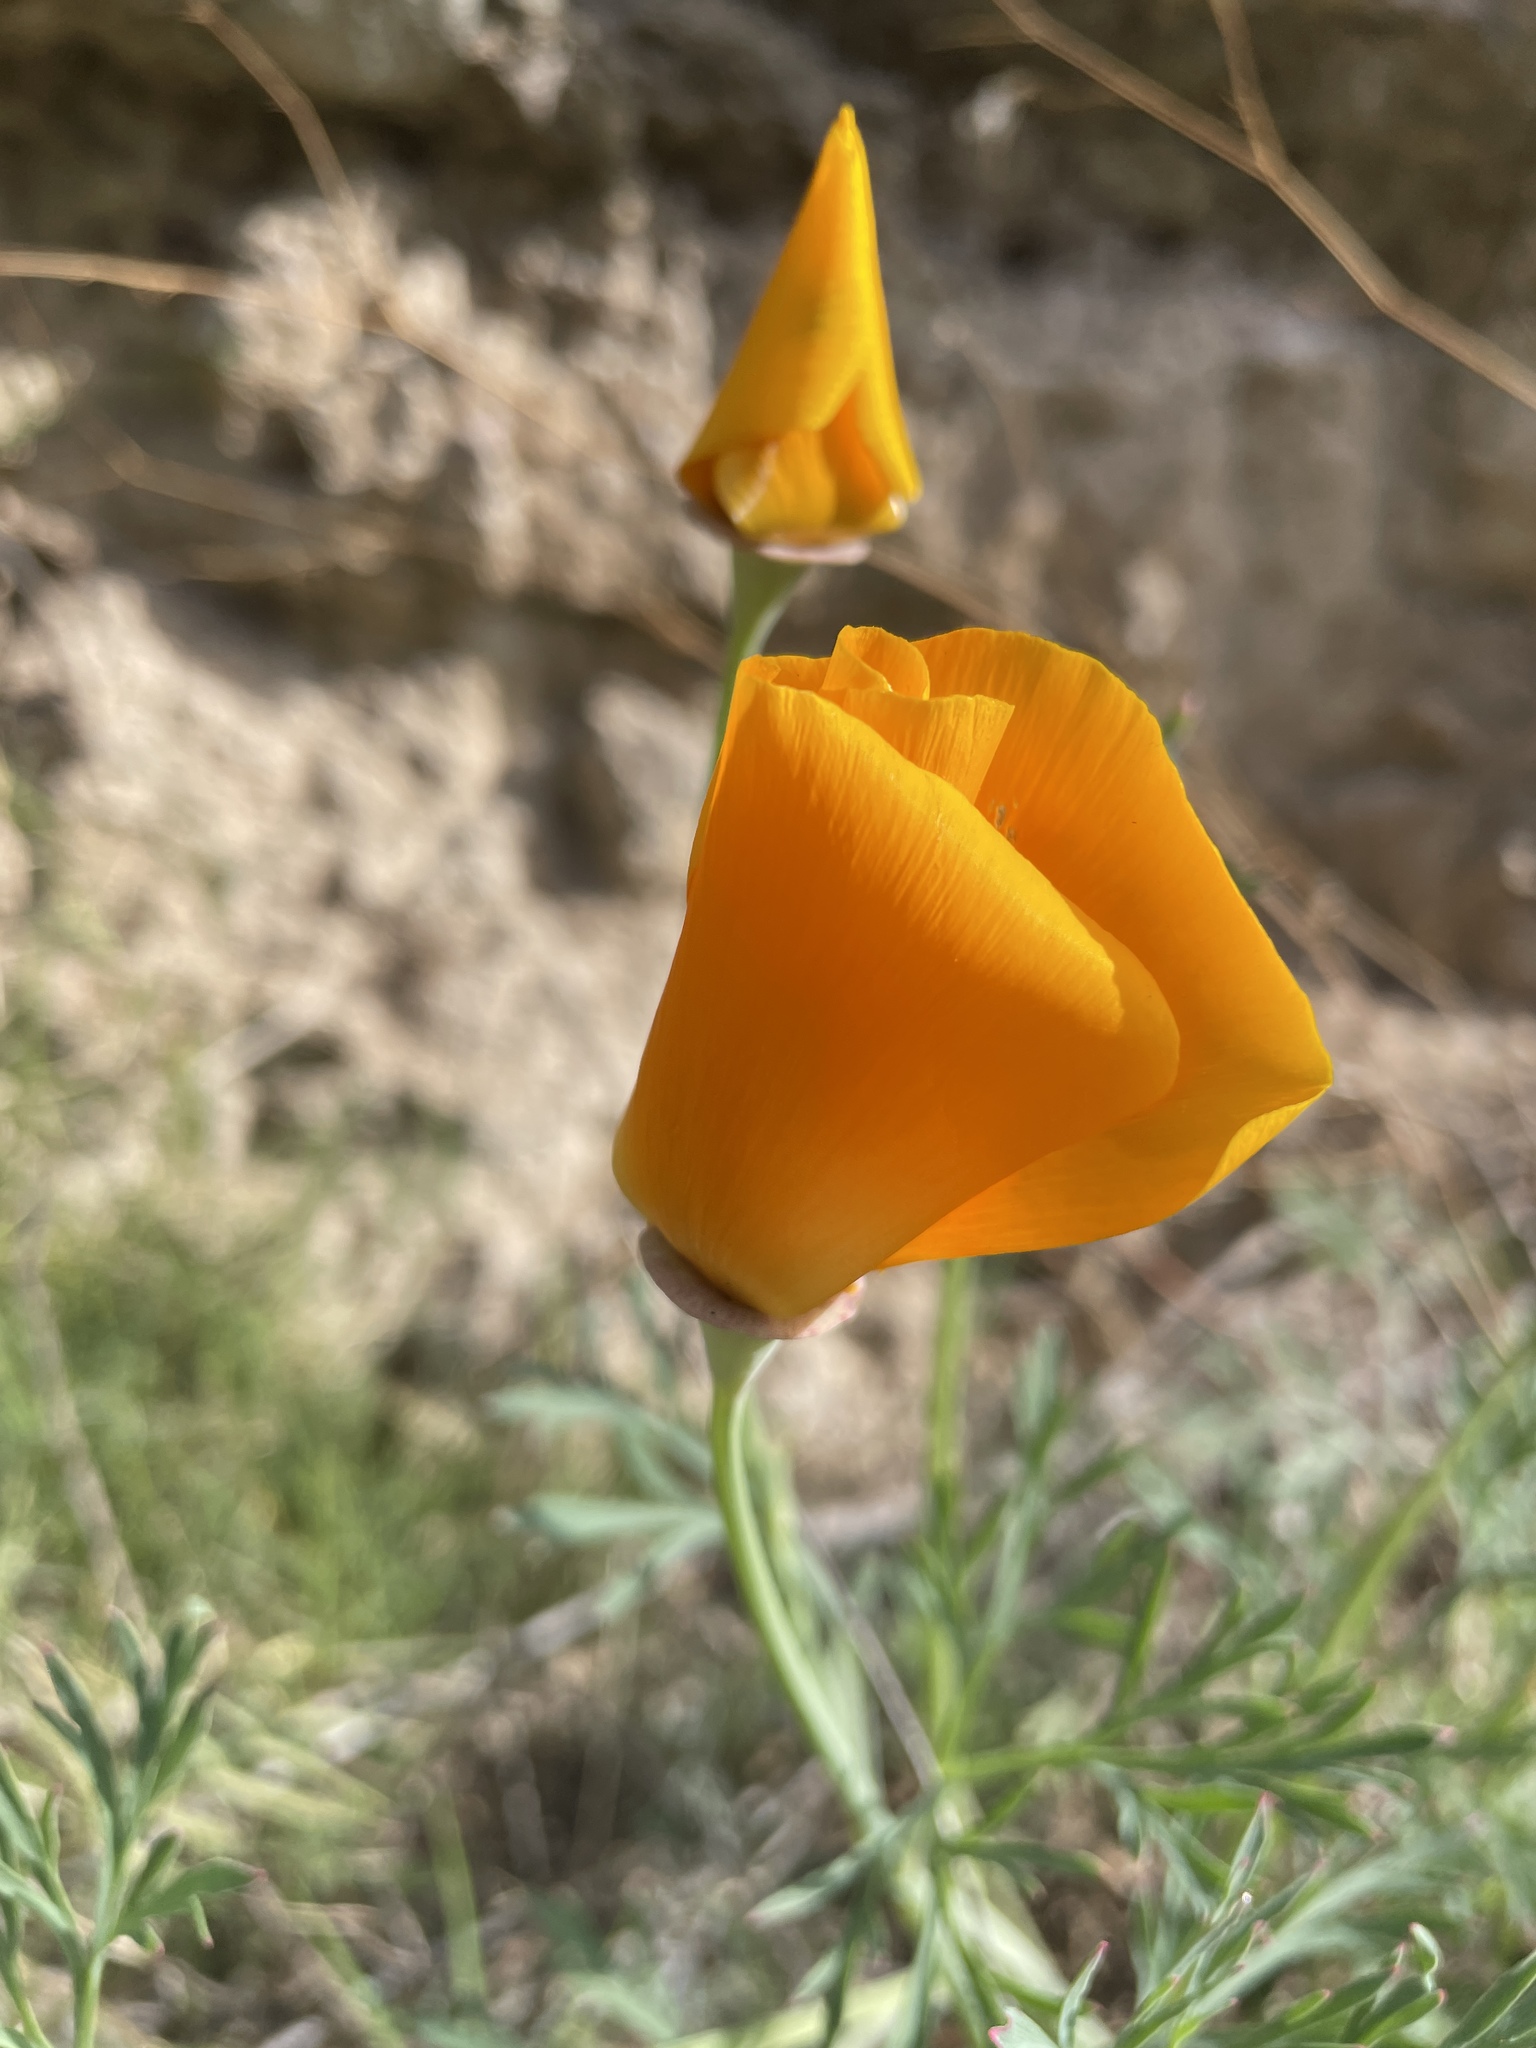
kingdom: Plantae
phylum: Tracheophyta
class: Magnoliopsida
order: Ranunculales
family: Papaveraceae
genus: Eschscholzia
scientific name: Eschscholzia californica
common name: California poppy
